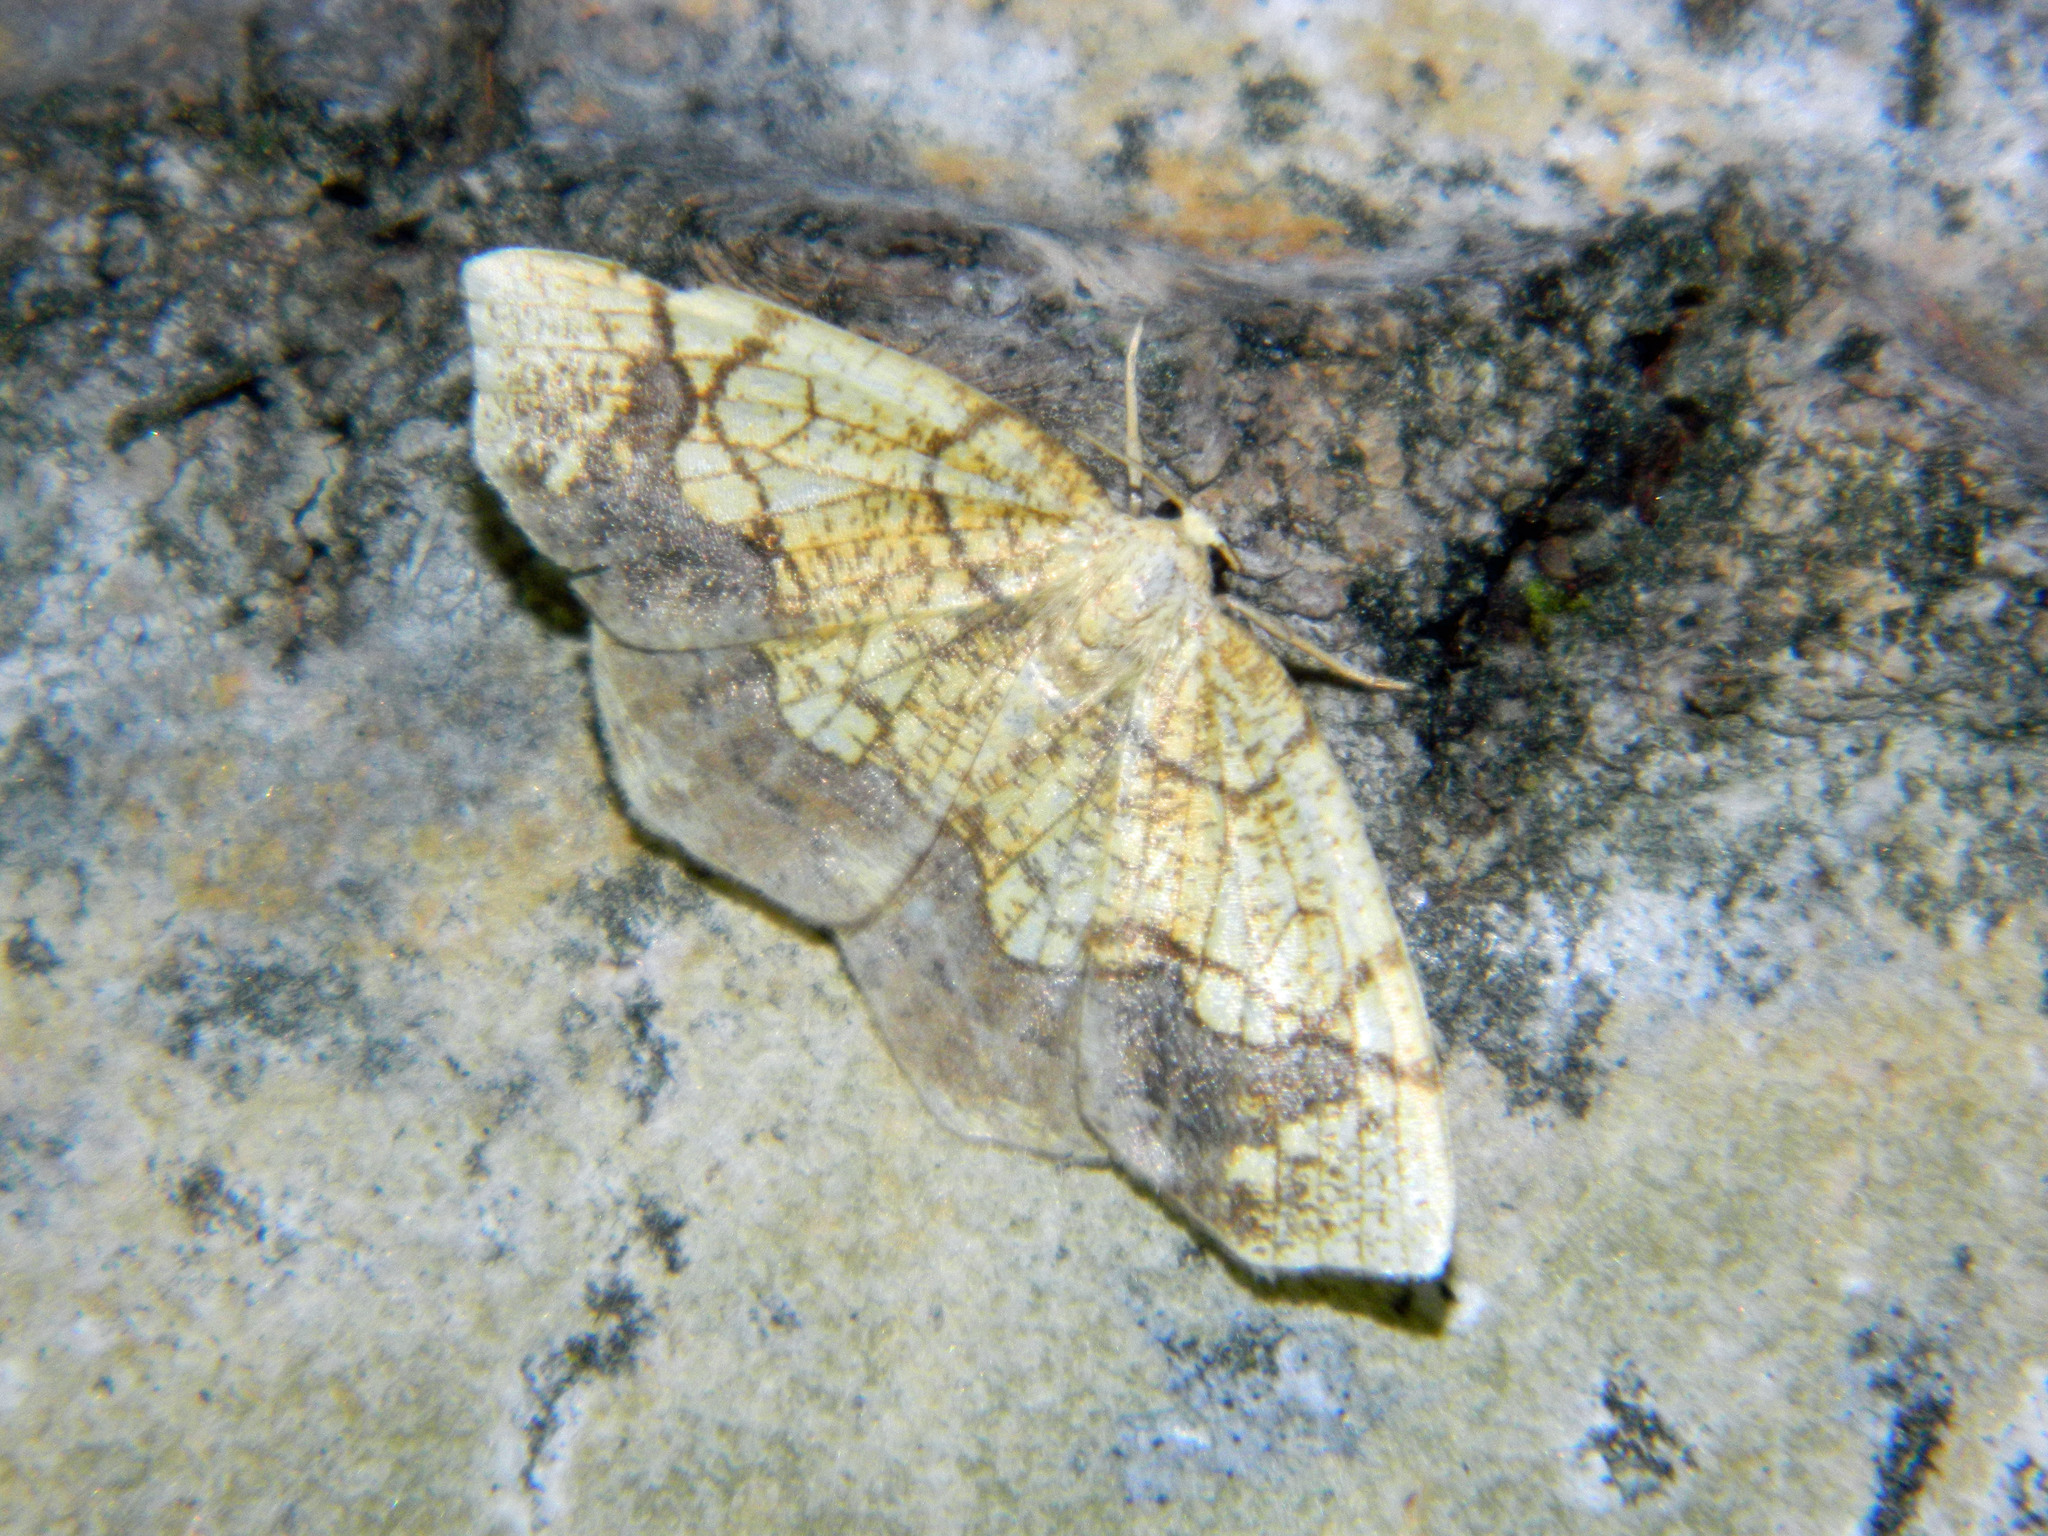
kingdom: Animalia
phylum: Arthropoda
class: Insecta
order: Lepidoptera
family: Geometridae
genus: Nematocampa
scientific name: Nematocampa resistaria
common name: Horned spanworm moth
